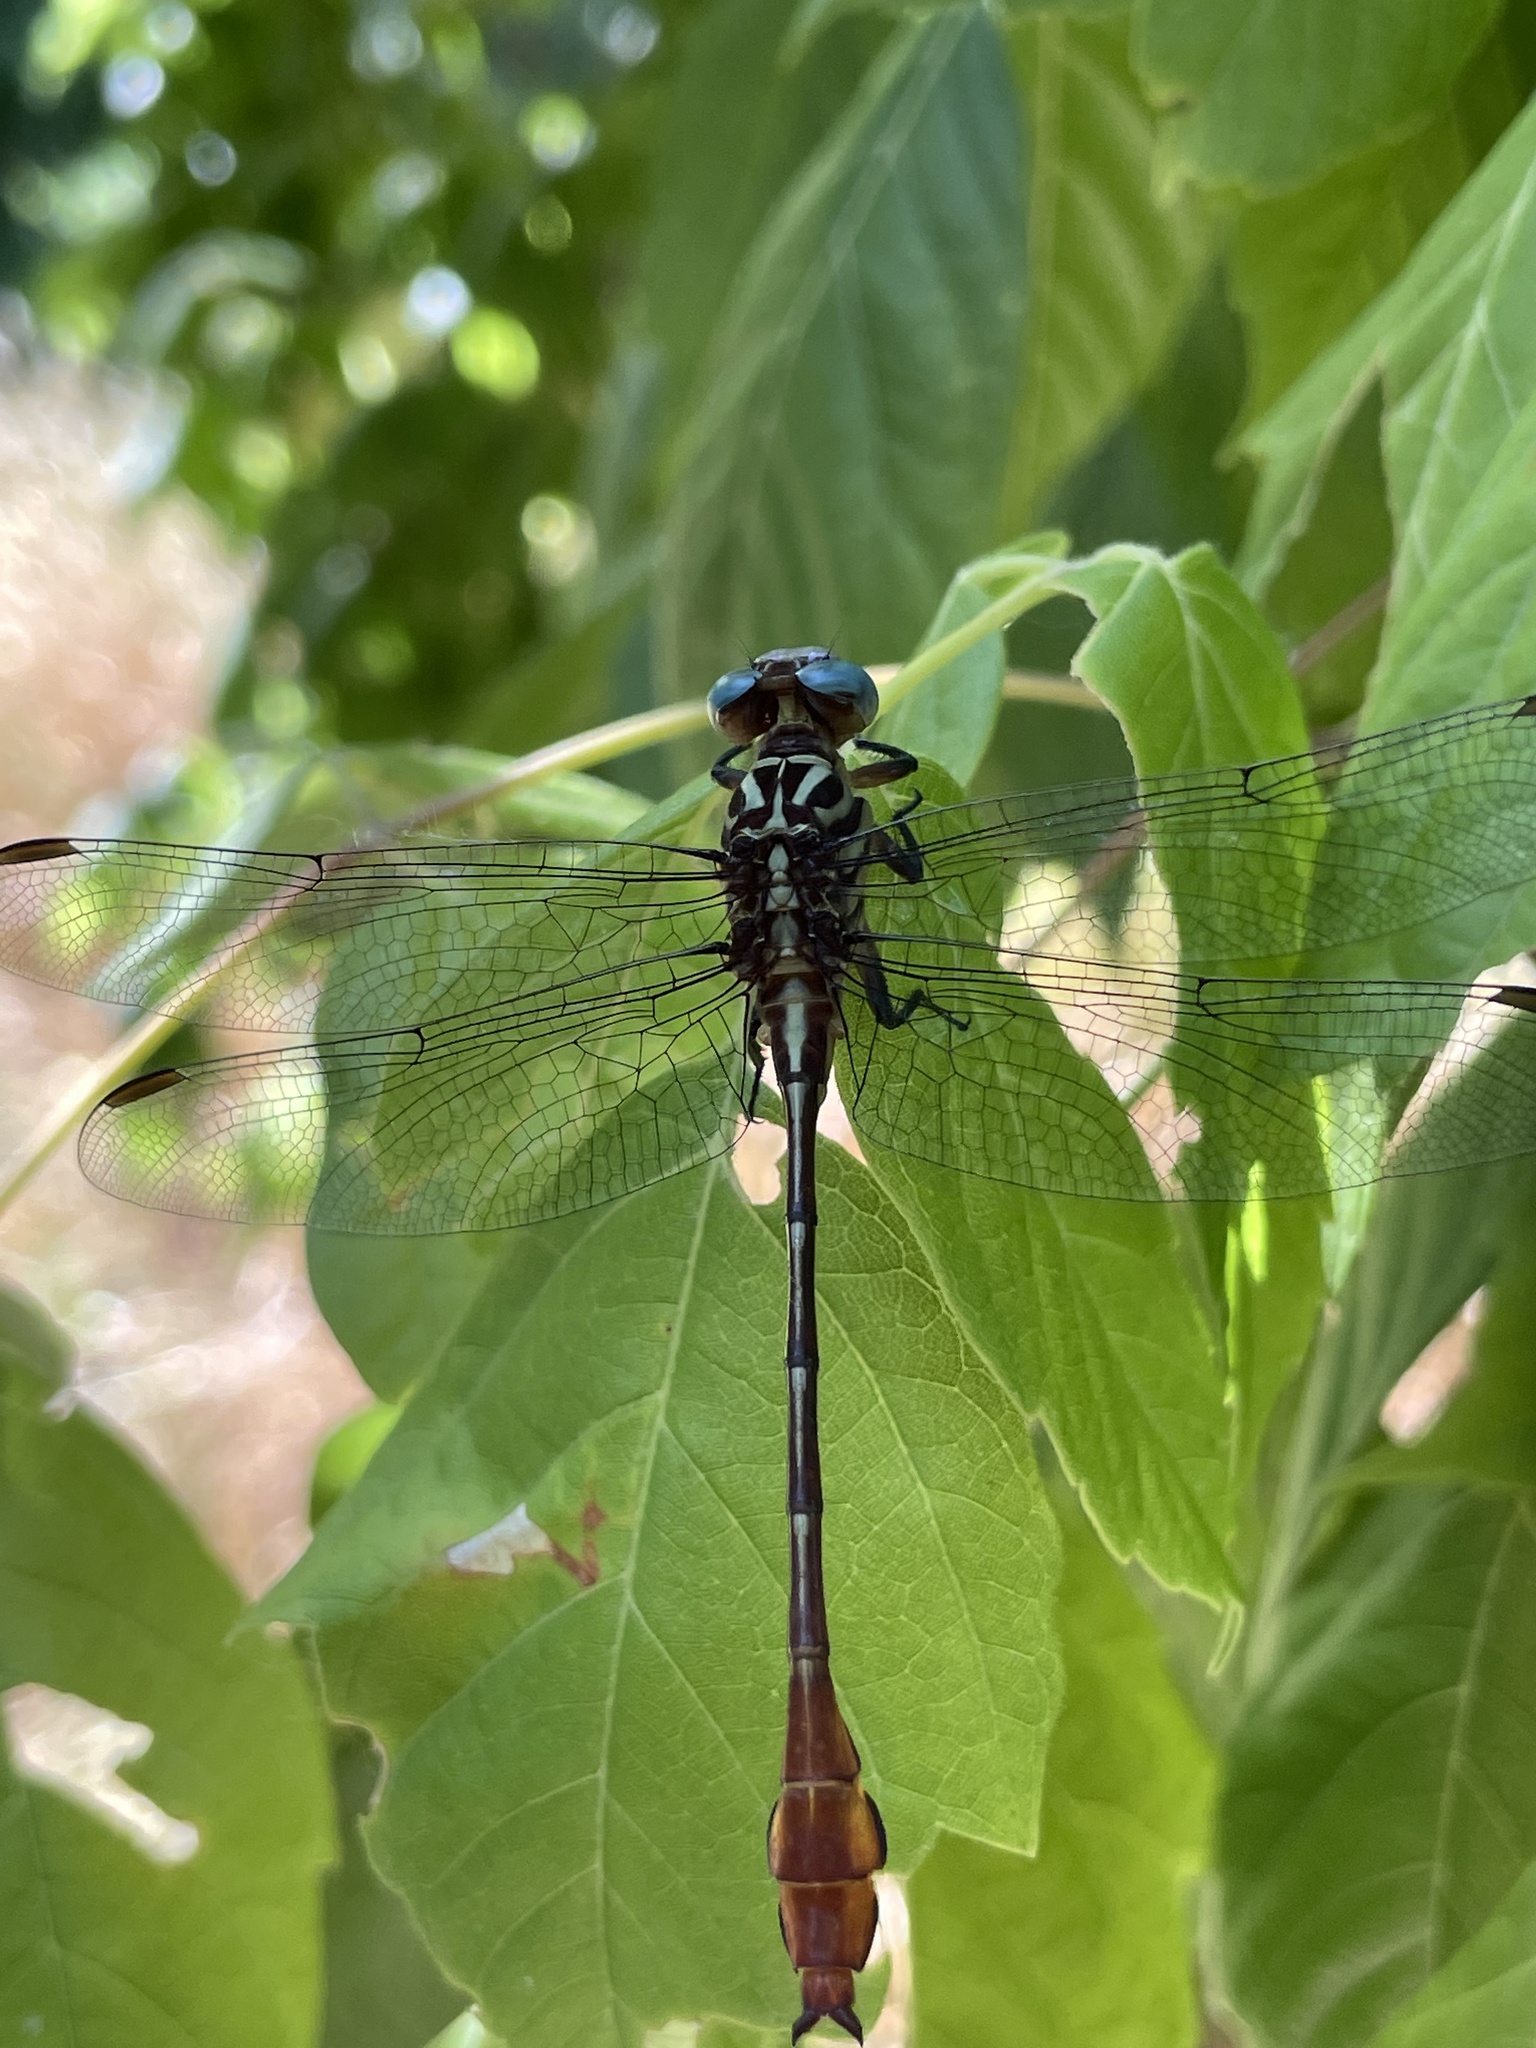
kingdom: Animalia
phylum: Arthropoda
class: Insecta
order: Odonata
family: Gomphidae
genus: Stylurus
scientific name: Stylurus plagiatus
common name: Russet-tipped clubtail
